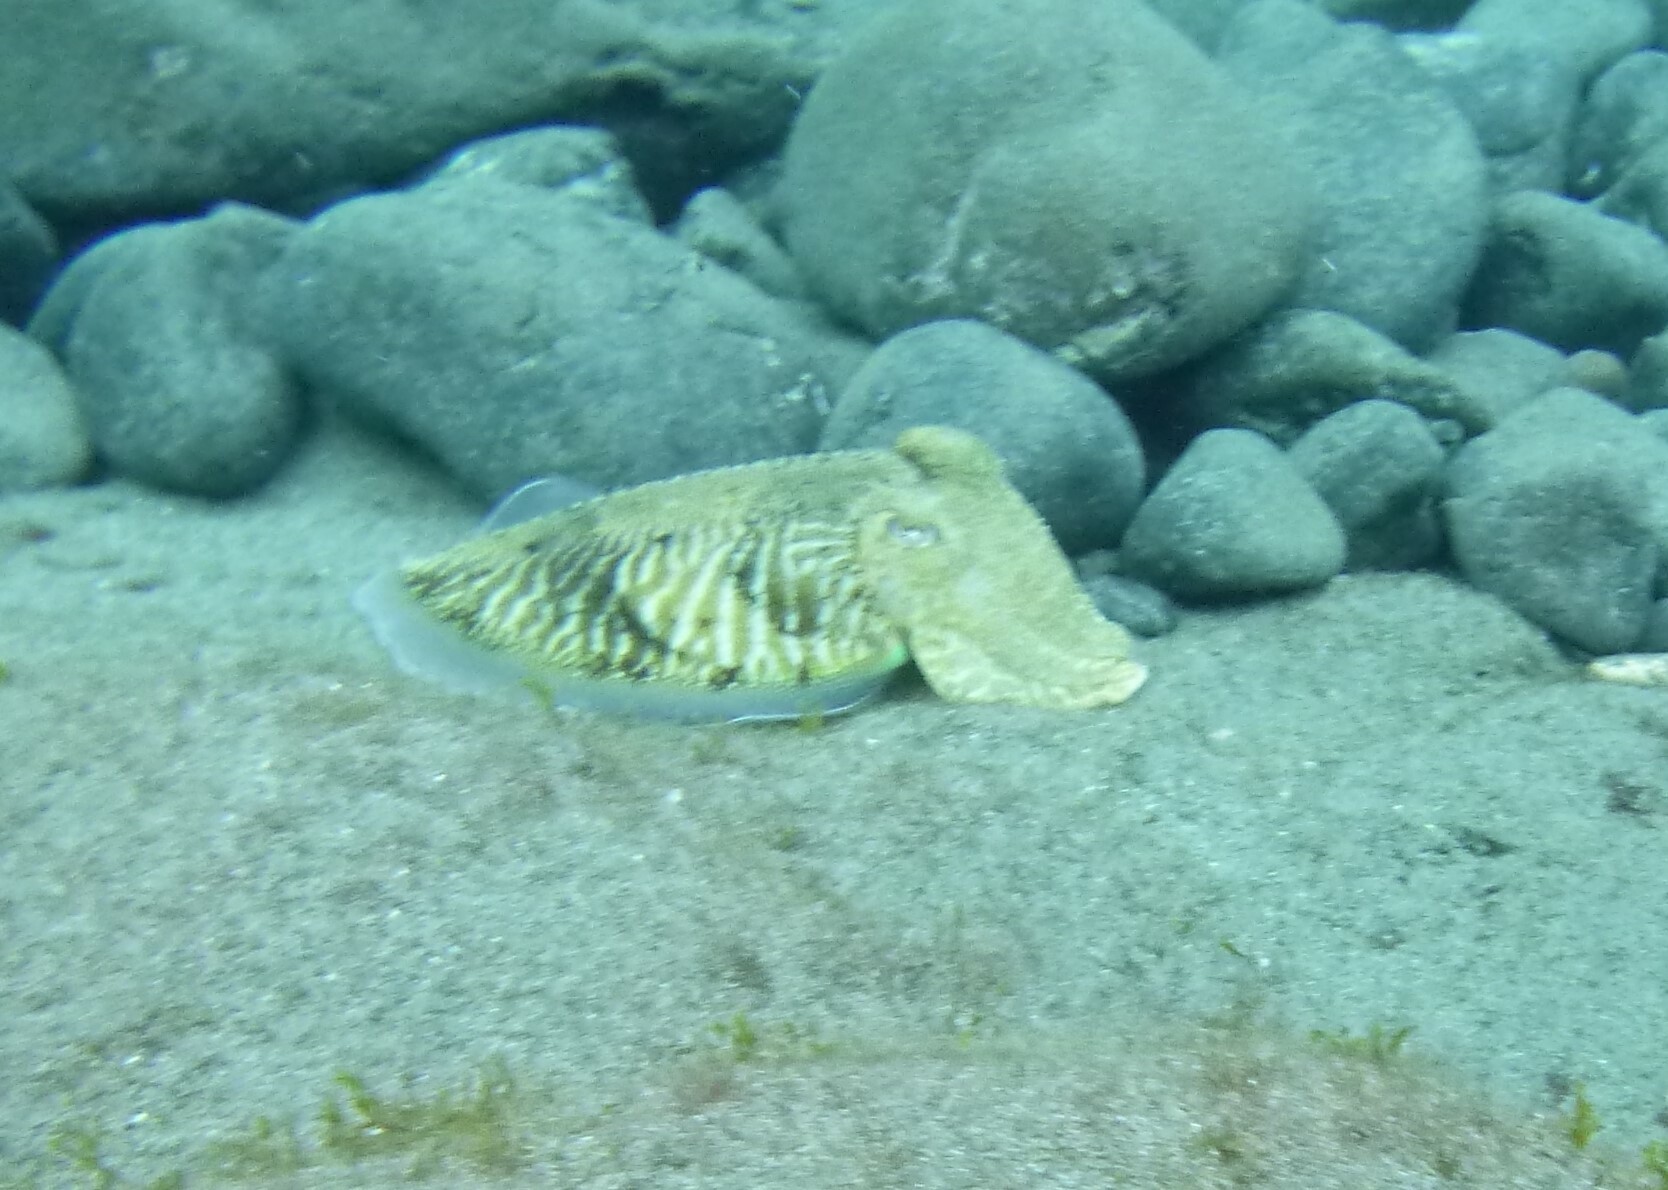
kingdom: Animalia
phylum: Mollusca
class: Cephalopoda
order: Sepiida
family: Sepiidae
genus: Sepia
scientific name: Sepia officinalis
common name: Common cuttlefish
